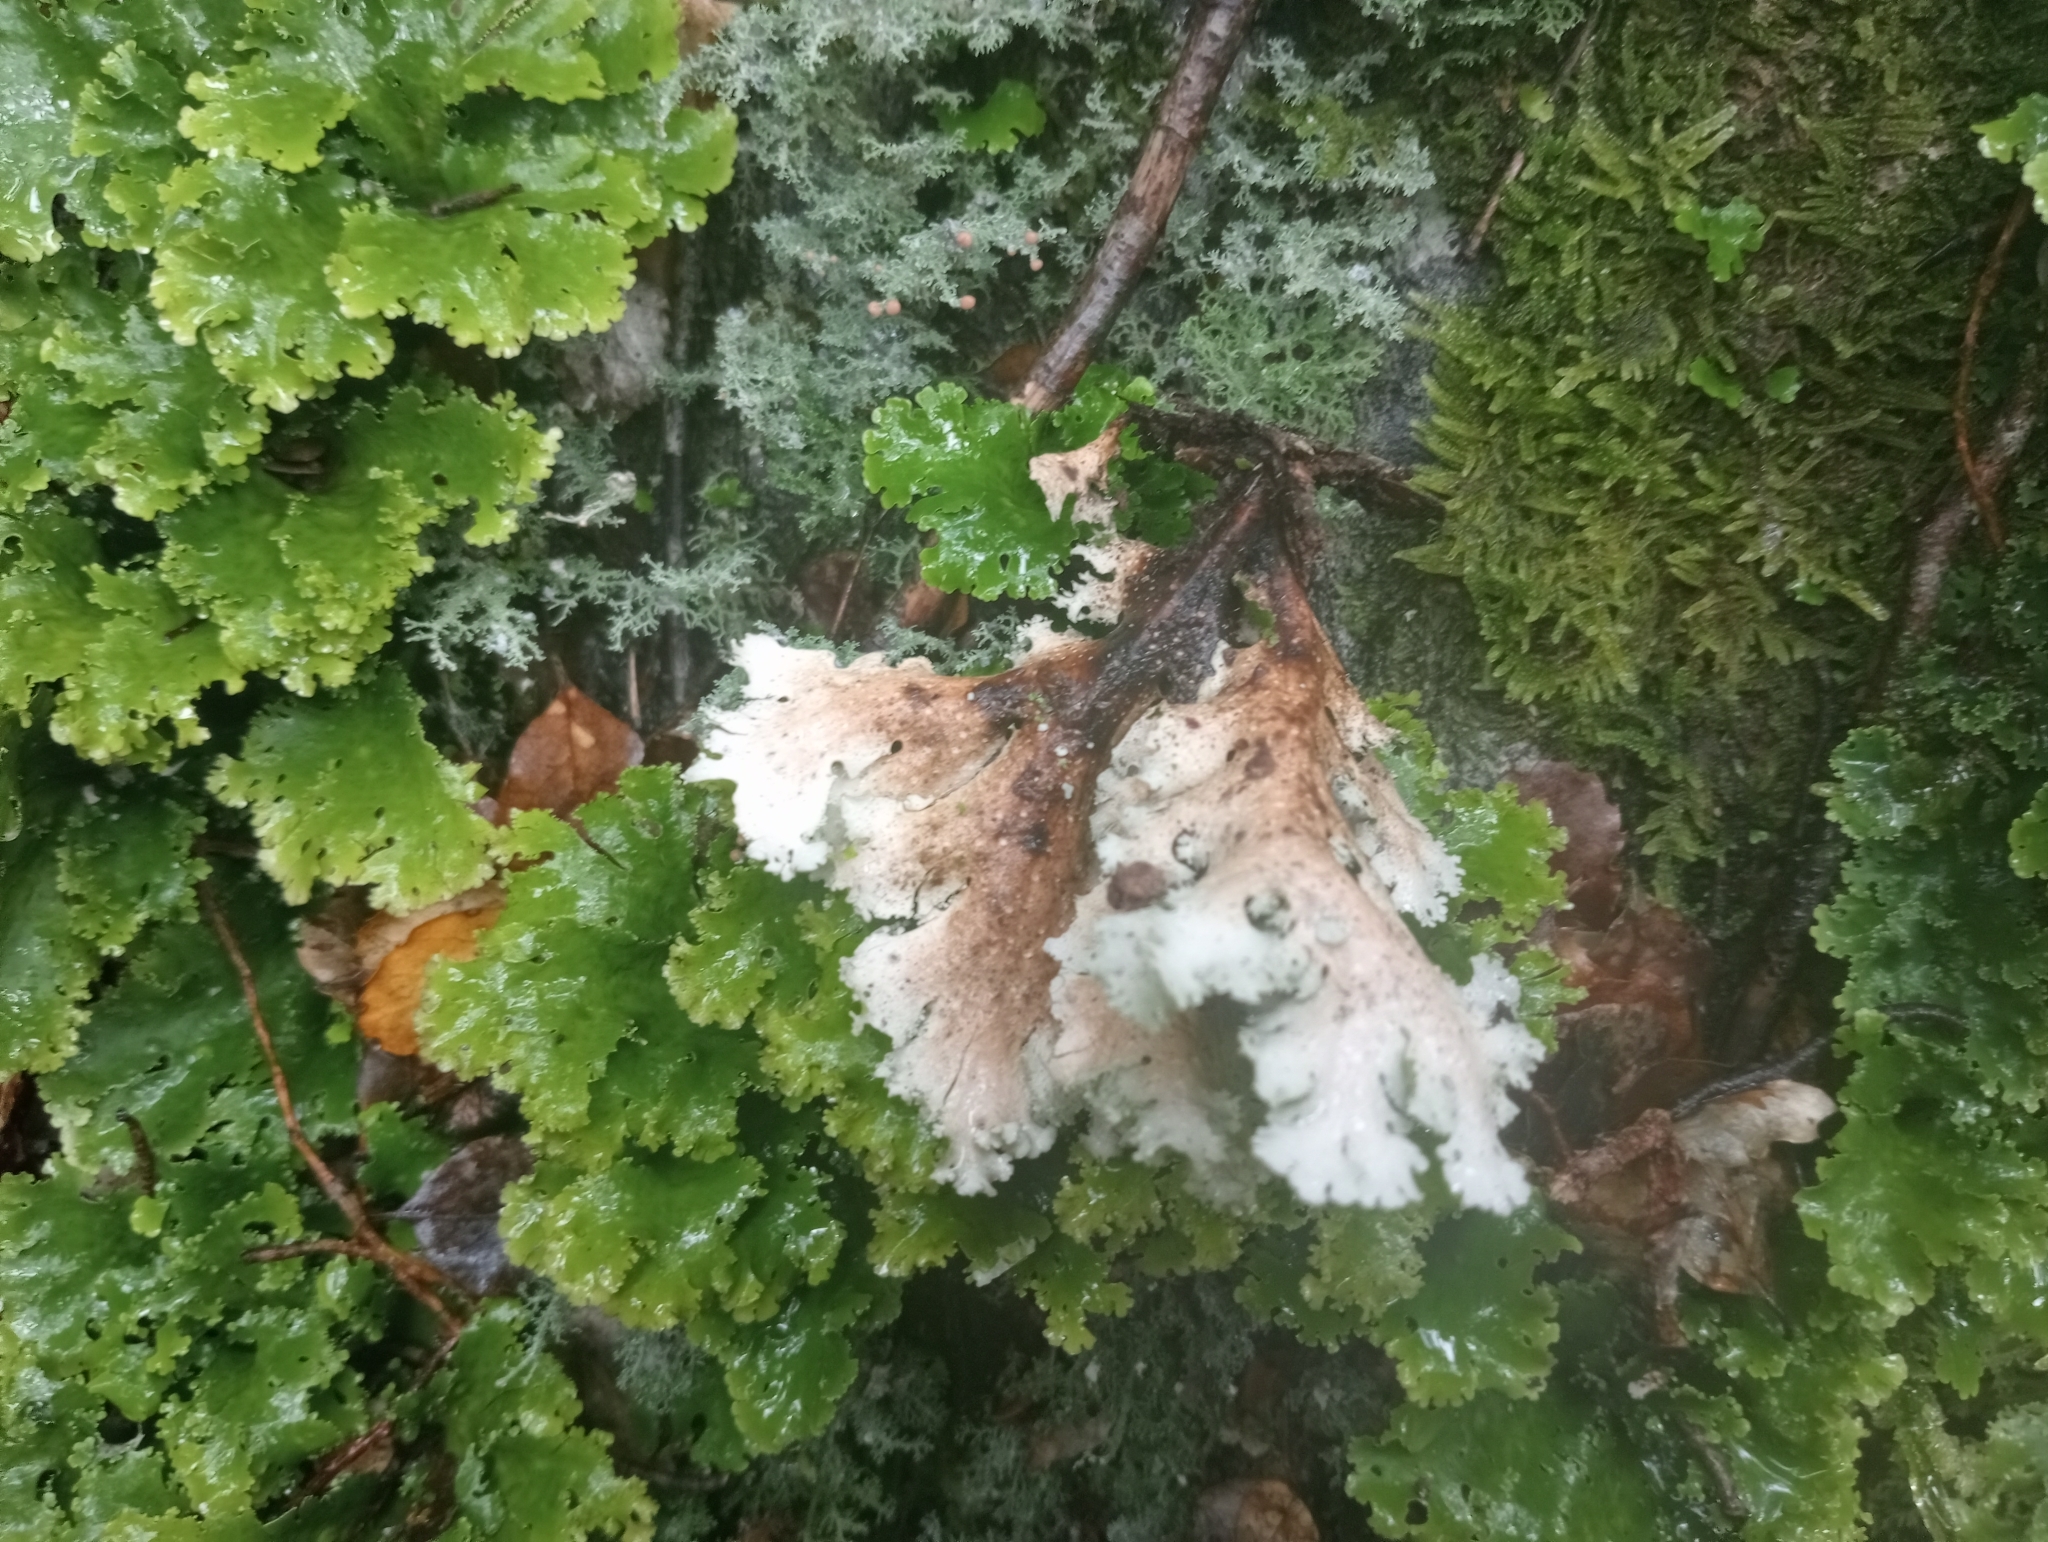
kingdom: Fungi
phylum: Ascomycota
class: Lecanoromycetes
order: Peltigerales
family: Lobariaceae
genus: Sticta
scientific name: Sticta filix
